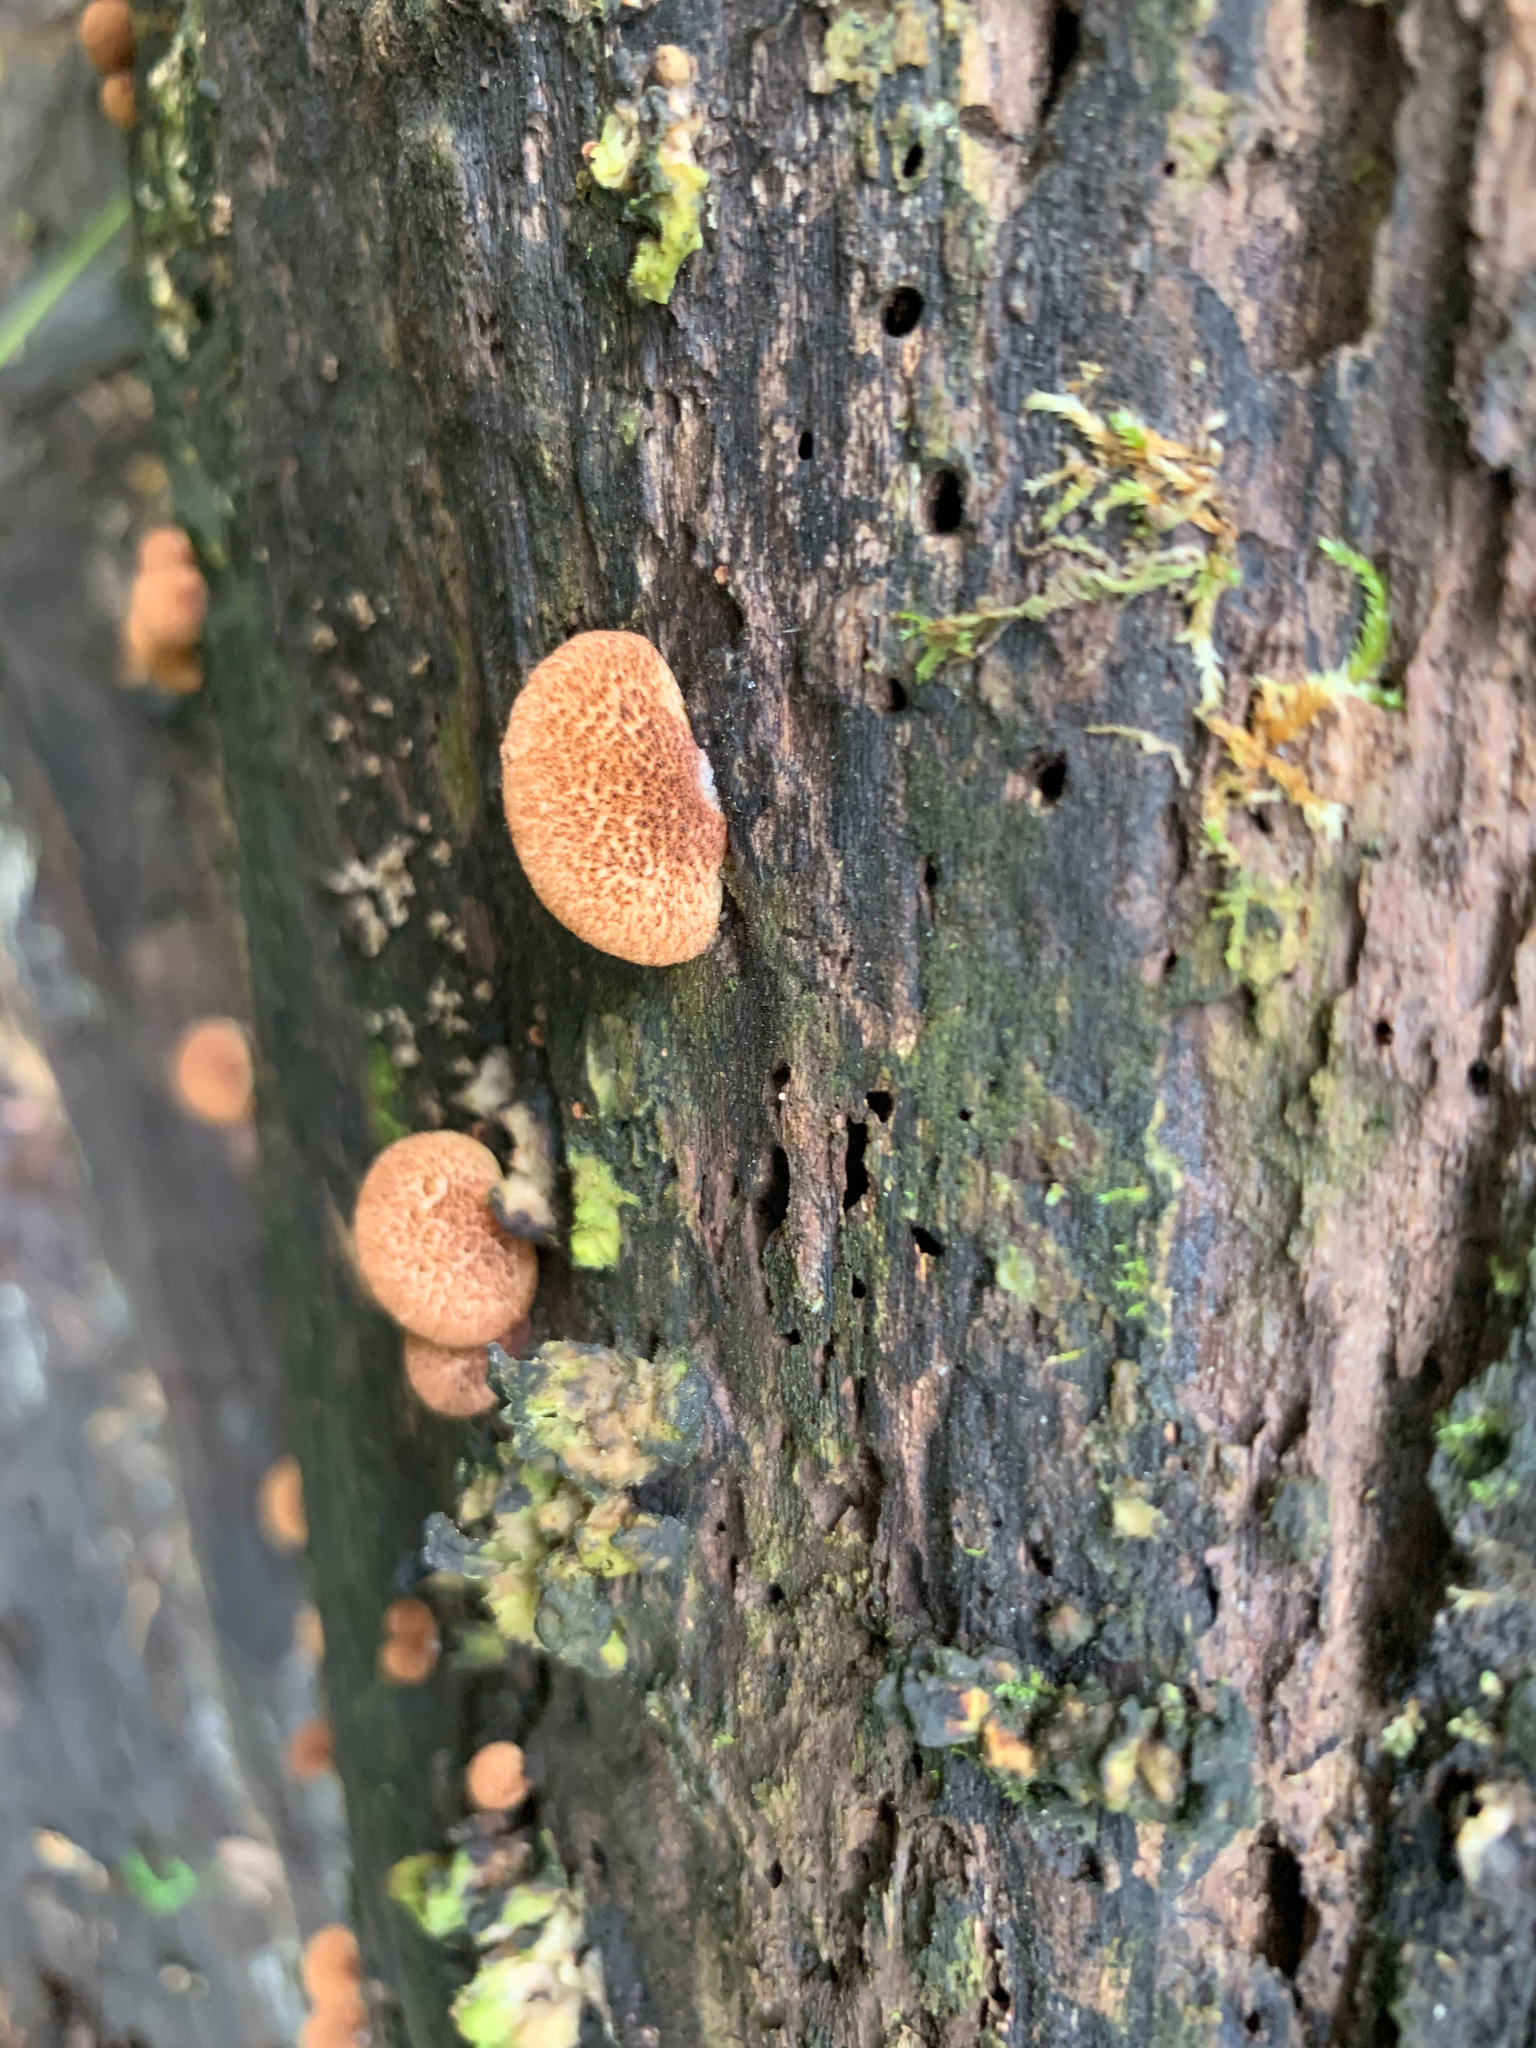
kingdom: Fungi
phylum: Basidiomycota
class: Agaricomycetes
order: Agaricales
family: Crepidotaceae
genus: Crepidotus
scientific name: Crepidotus crocophyllus
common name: Saffron oysterling
